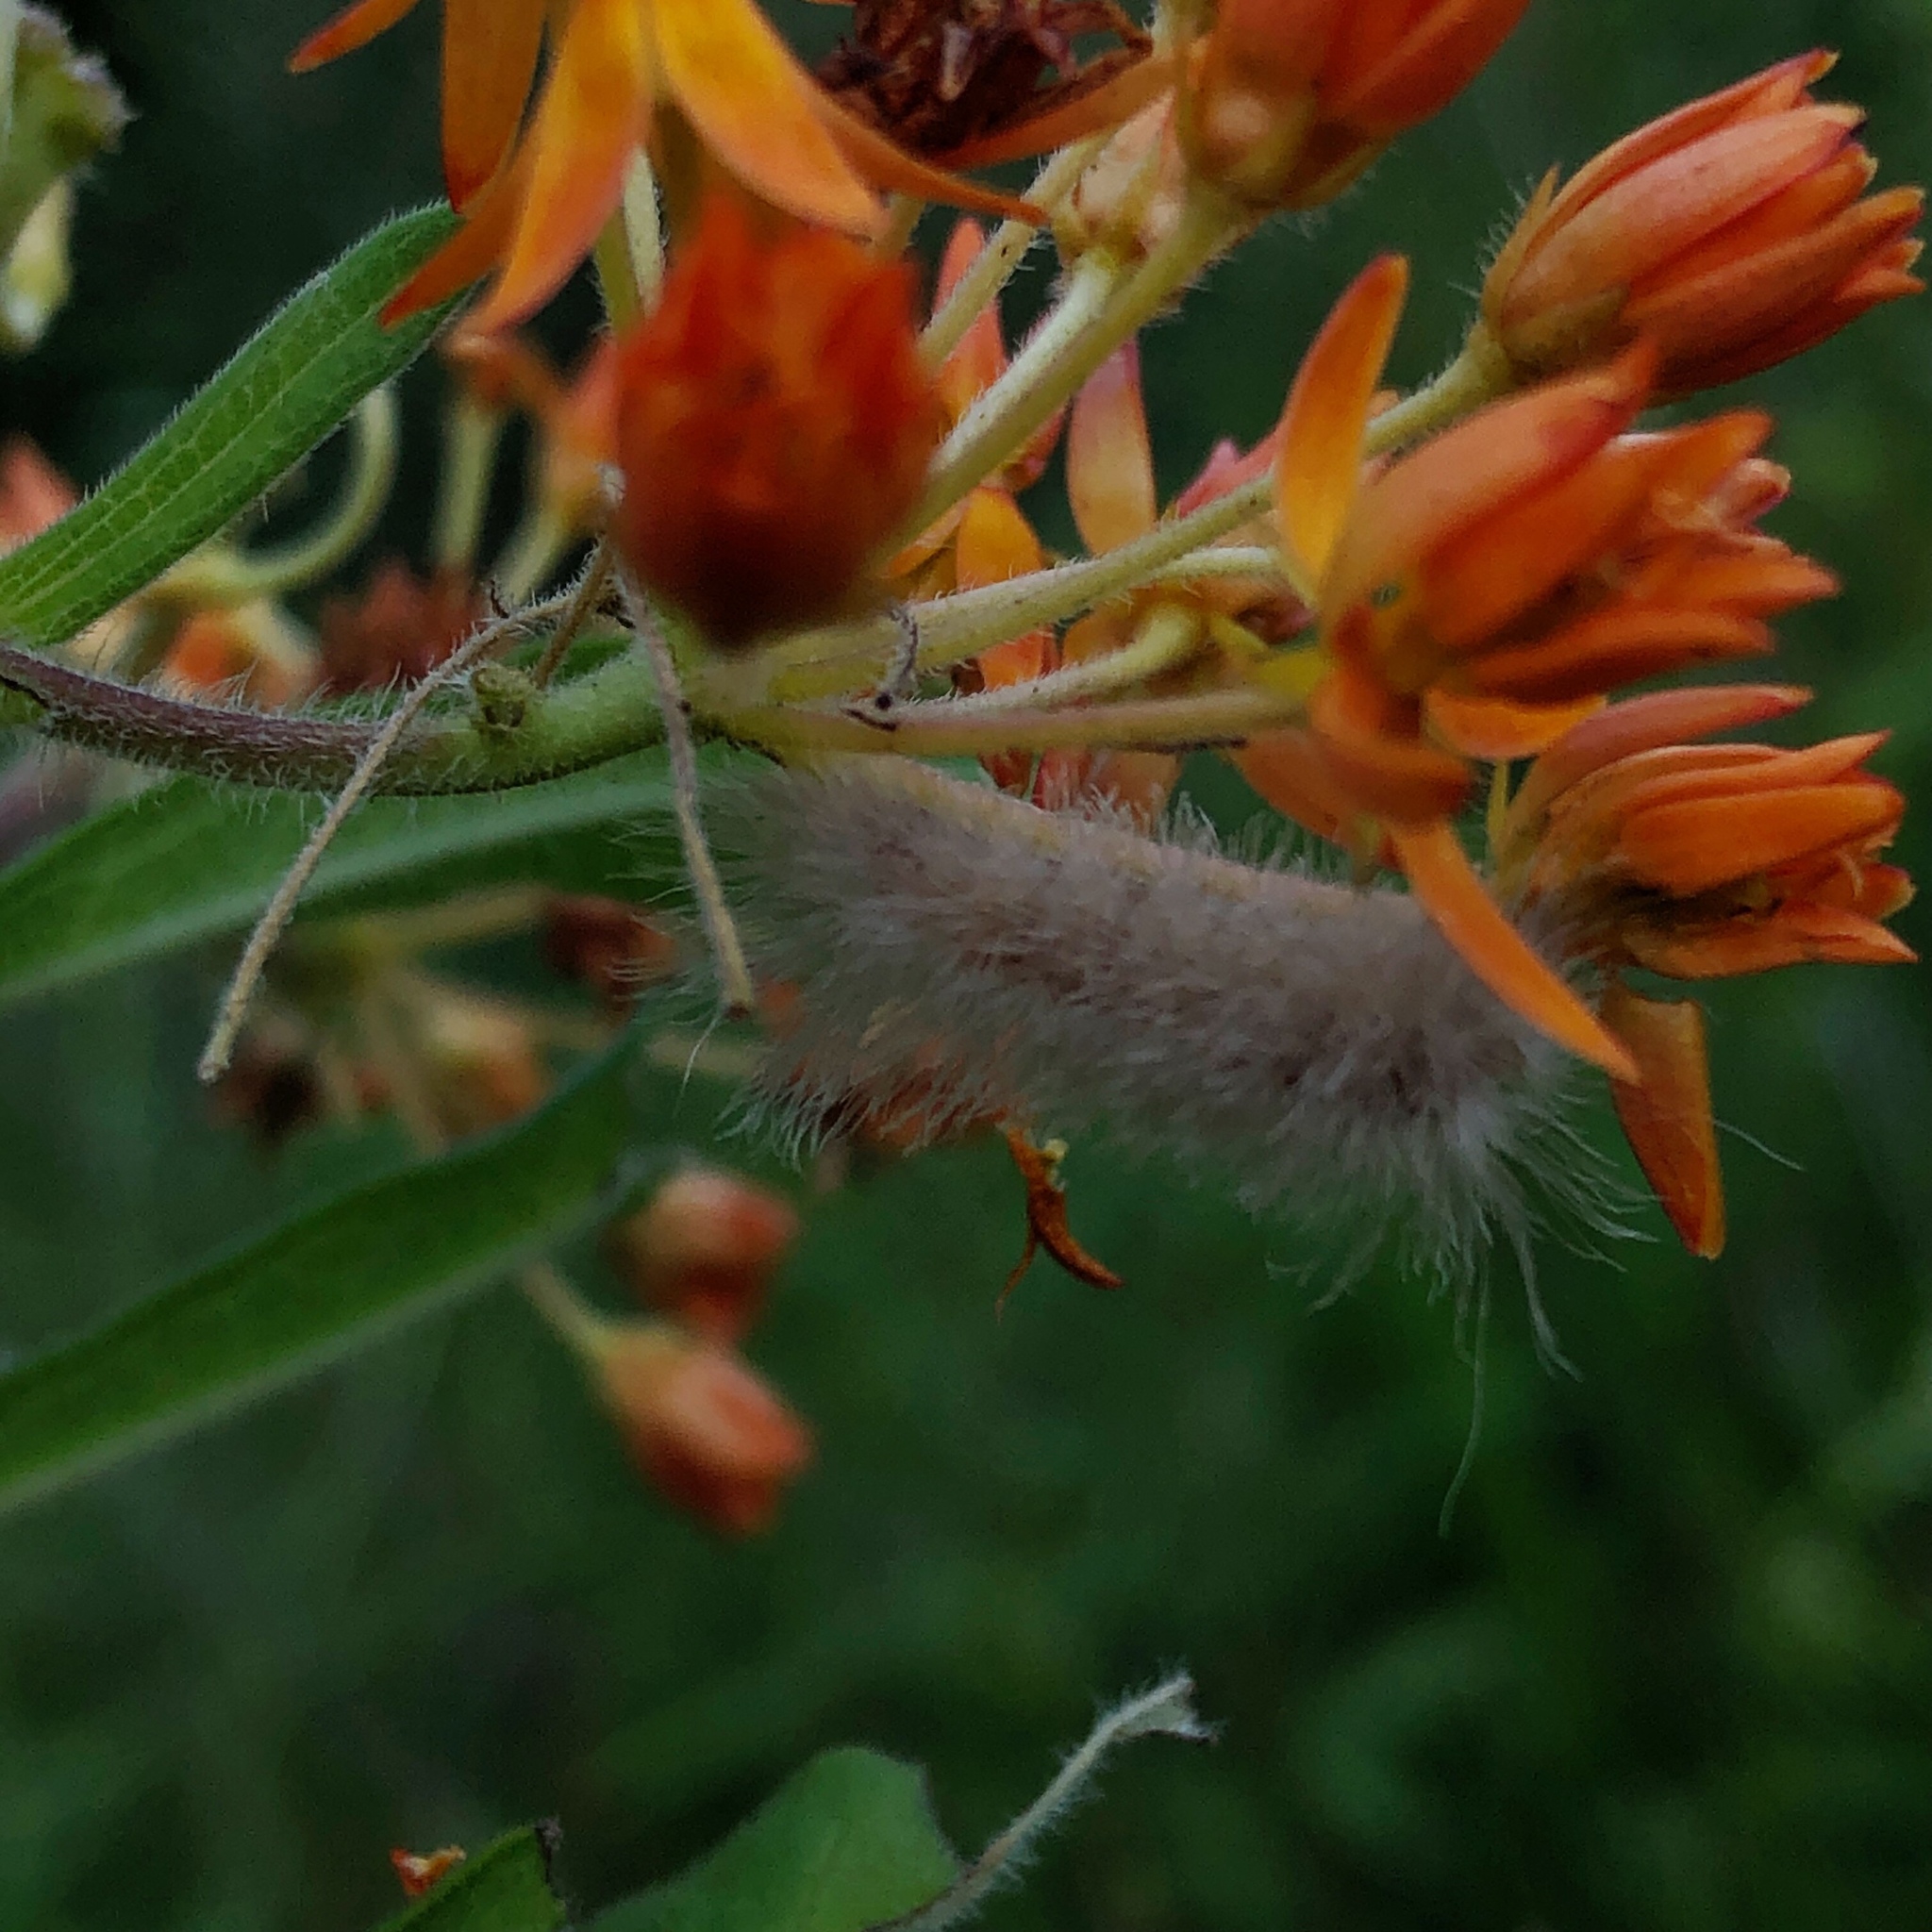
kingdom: Animalia
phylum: Arthropoda
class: Insecta
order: Lepidoptera
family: Erebidae
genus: Cycnia
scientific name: Cycnia tenera
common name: Delicate cycnia moth
